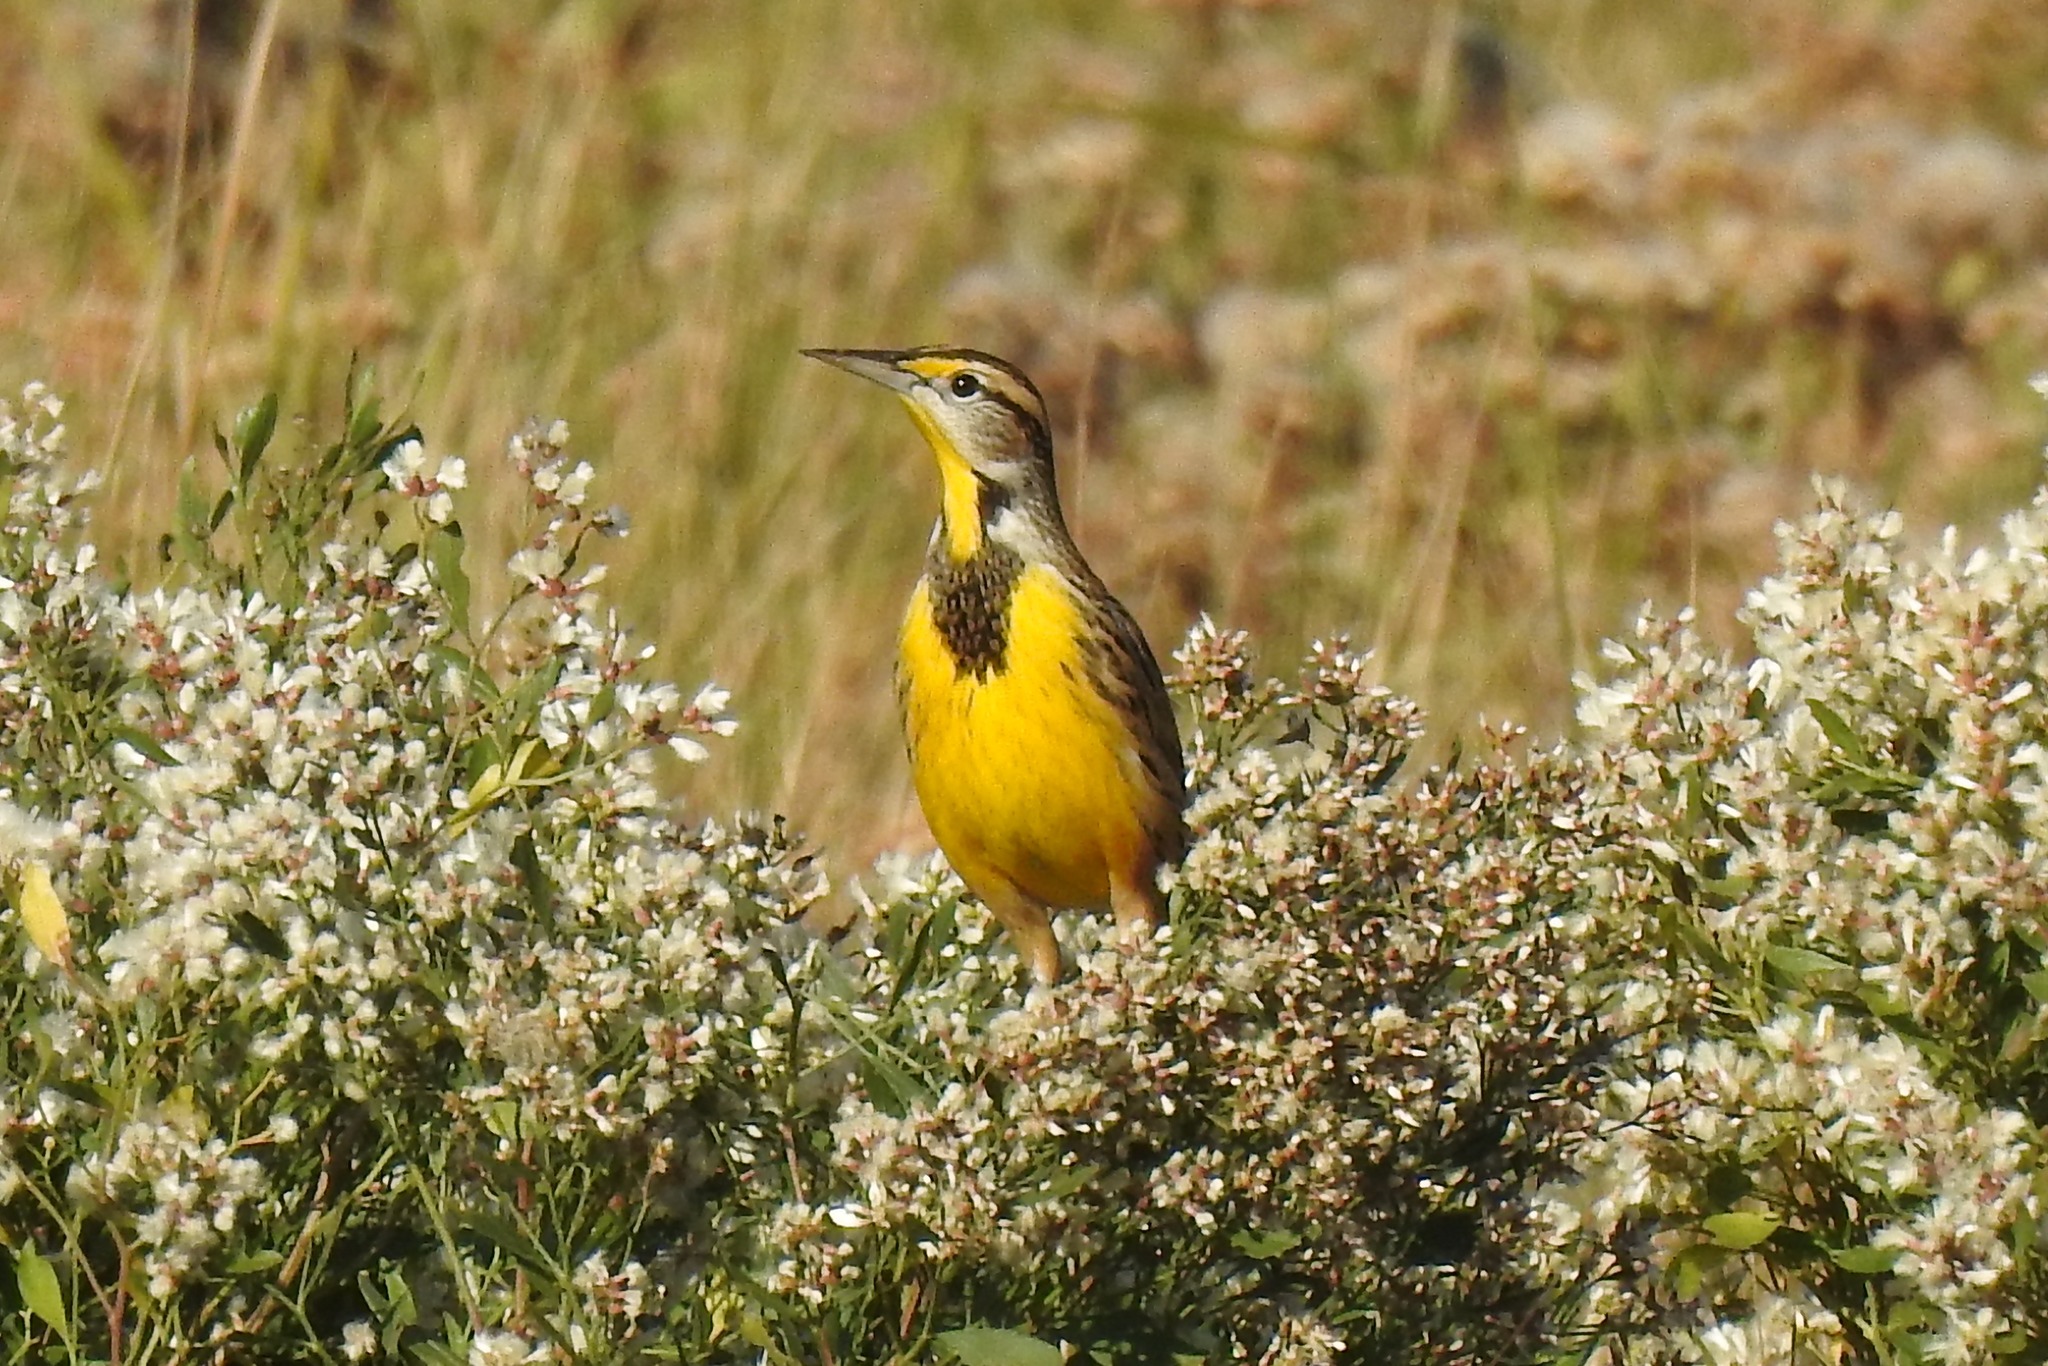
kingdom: Animalia
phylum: Chordata
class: Aves
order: Passeriformes
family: Icteridae
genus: Sturnella
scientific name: Sturnella magna
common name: Eastern meadowlark
